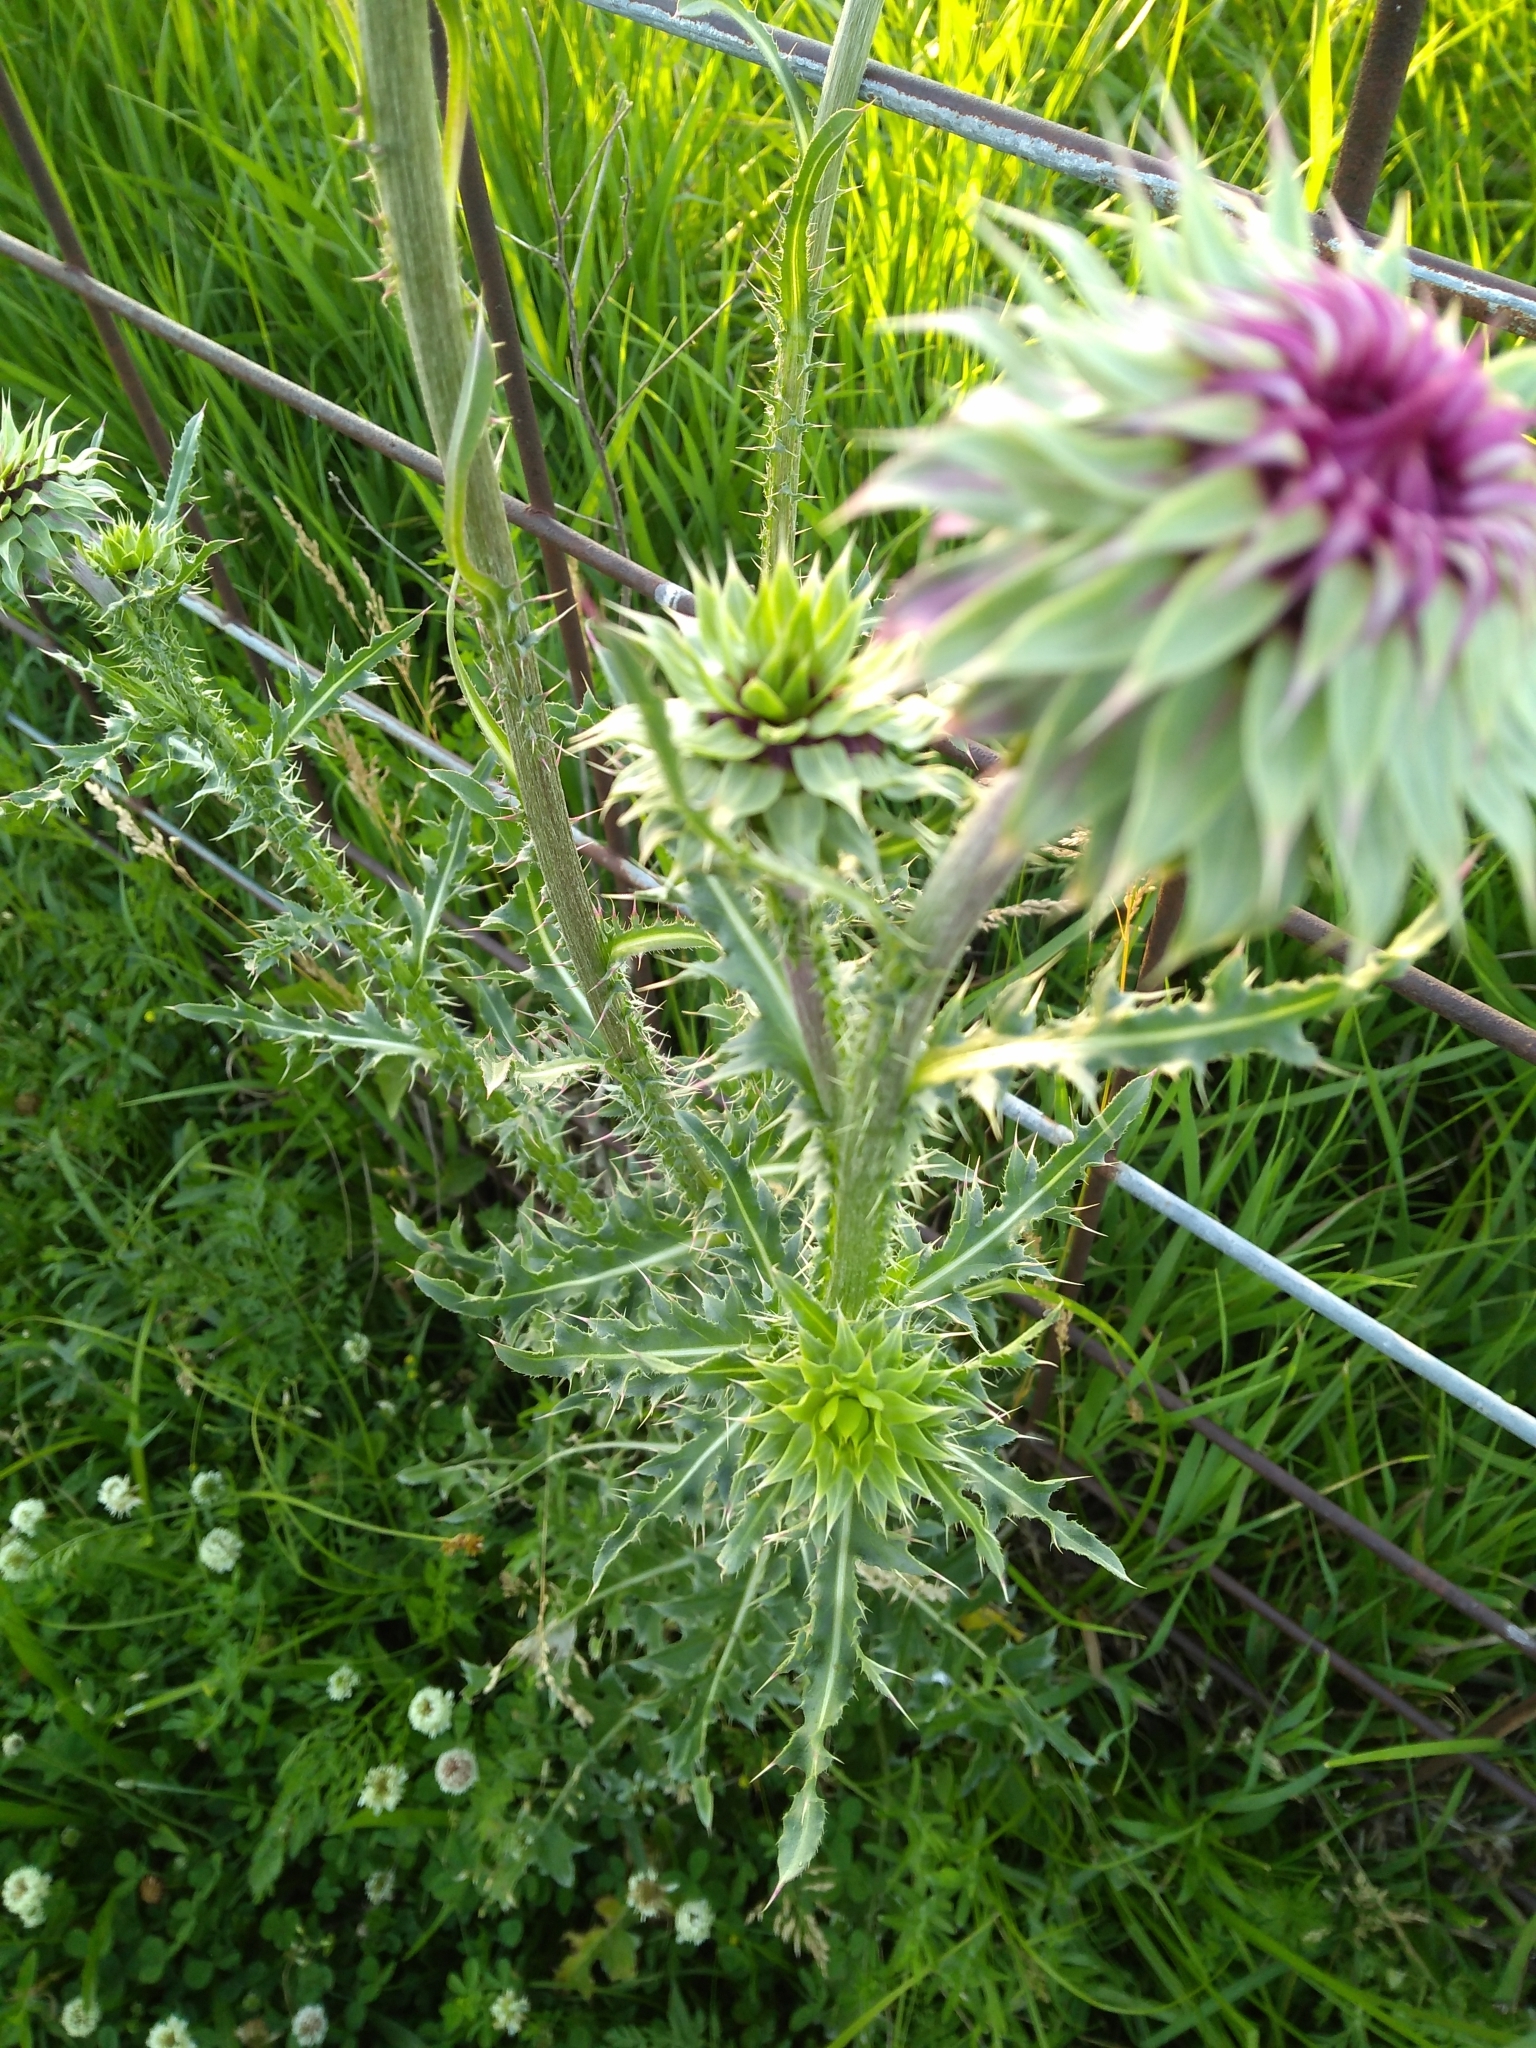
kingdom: Plantae
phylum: Tracheophyta
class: Magnoliopsida
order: Asterales
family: Asteraceae
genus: Carduus
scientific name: Carduus nutans
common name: Musk thistle
